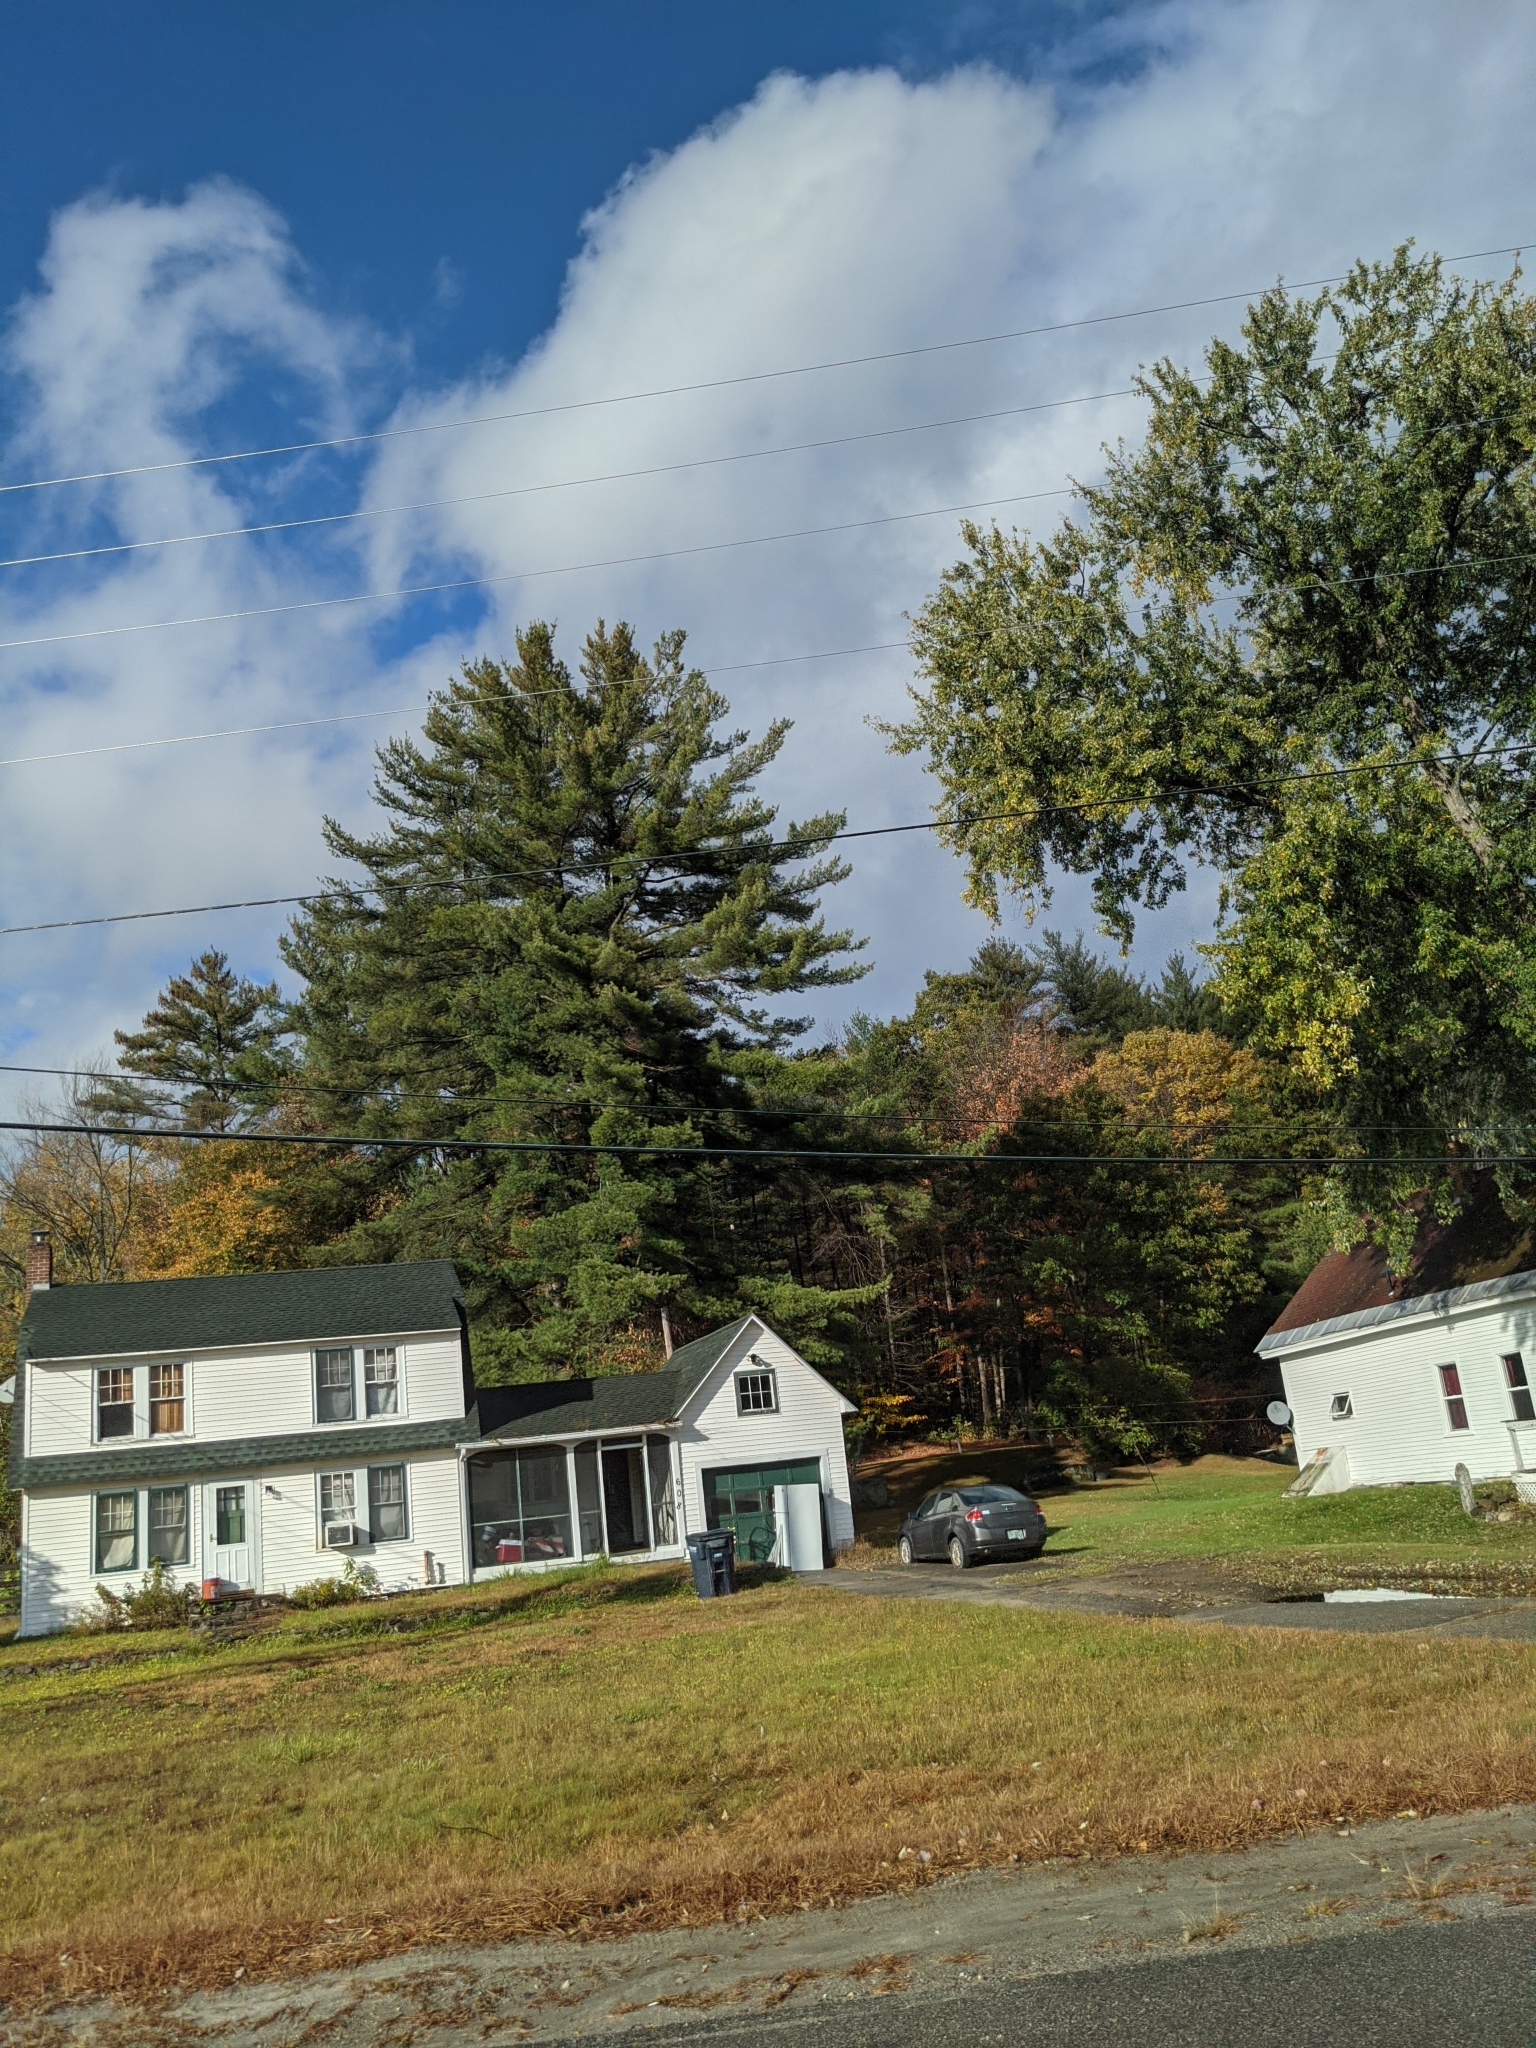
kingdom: Plantae
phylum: Tracheophyta
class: Pinopsida
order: Pinales
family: Pinaceae
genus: Pinus
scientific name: Pinus strobus
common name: Weymouth pine
